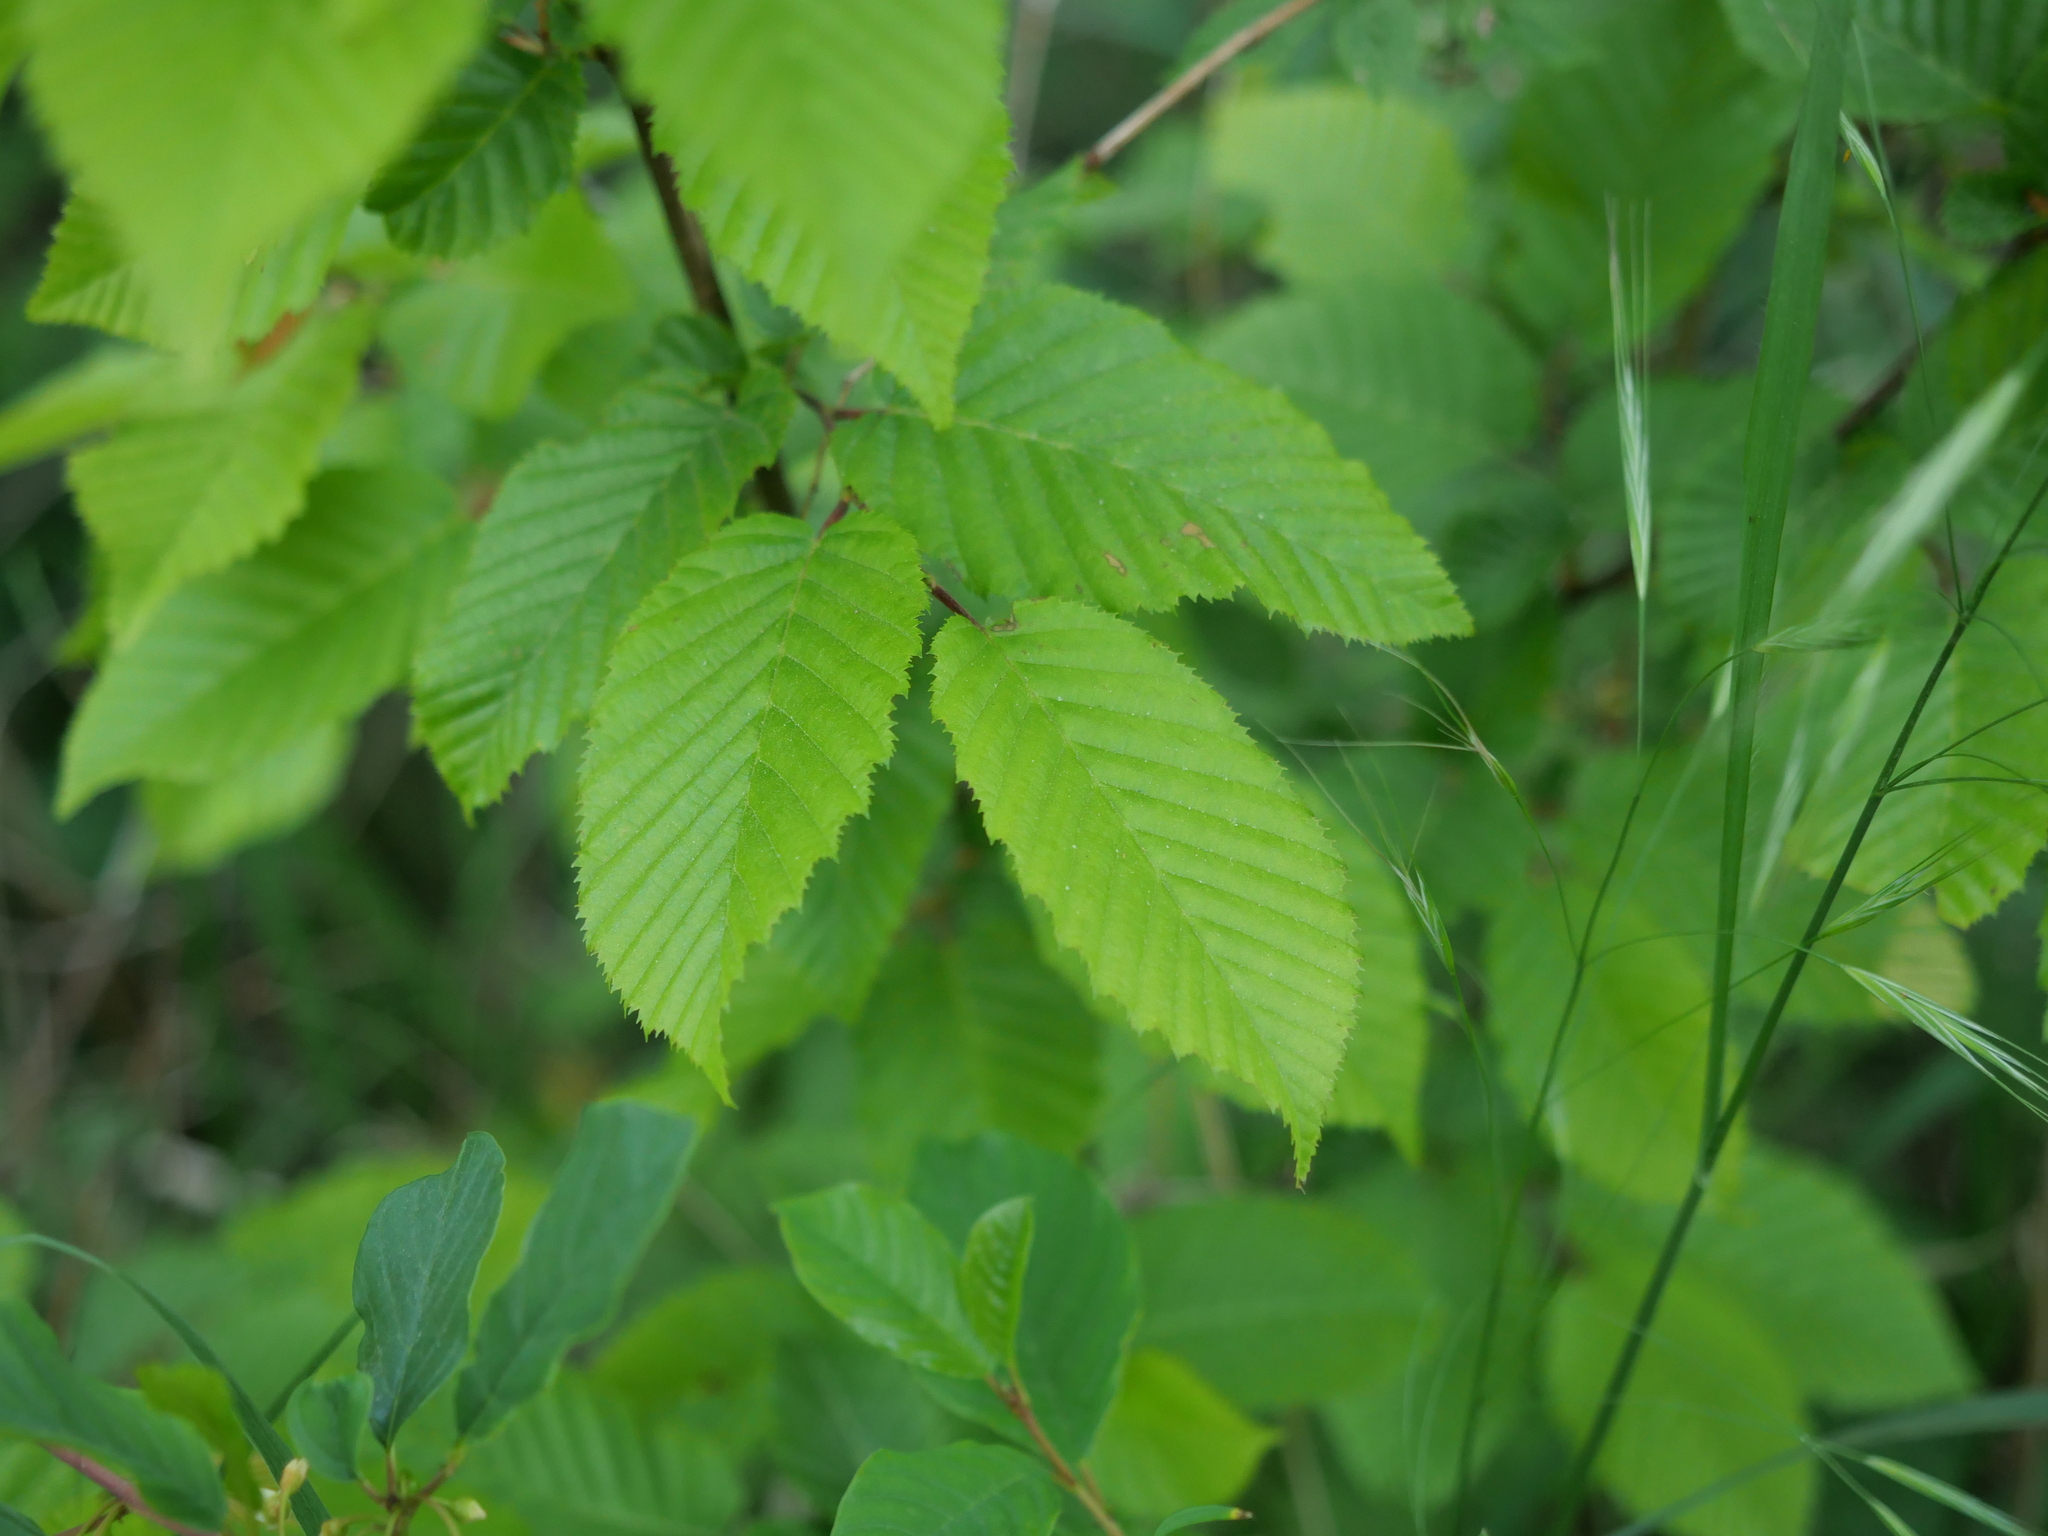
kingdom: Plantae
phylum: Tracheophyta
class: Magnoliopsida
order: Fagales
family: Betulaceae
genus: Carpinus
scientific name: Carpinus betulus
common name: Hornbeam
